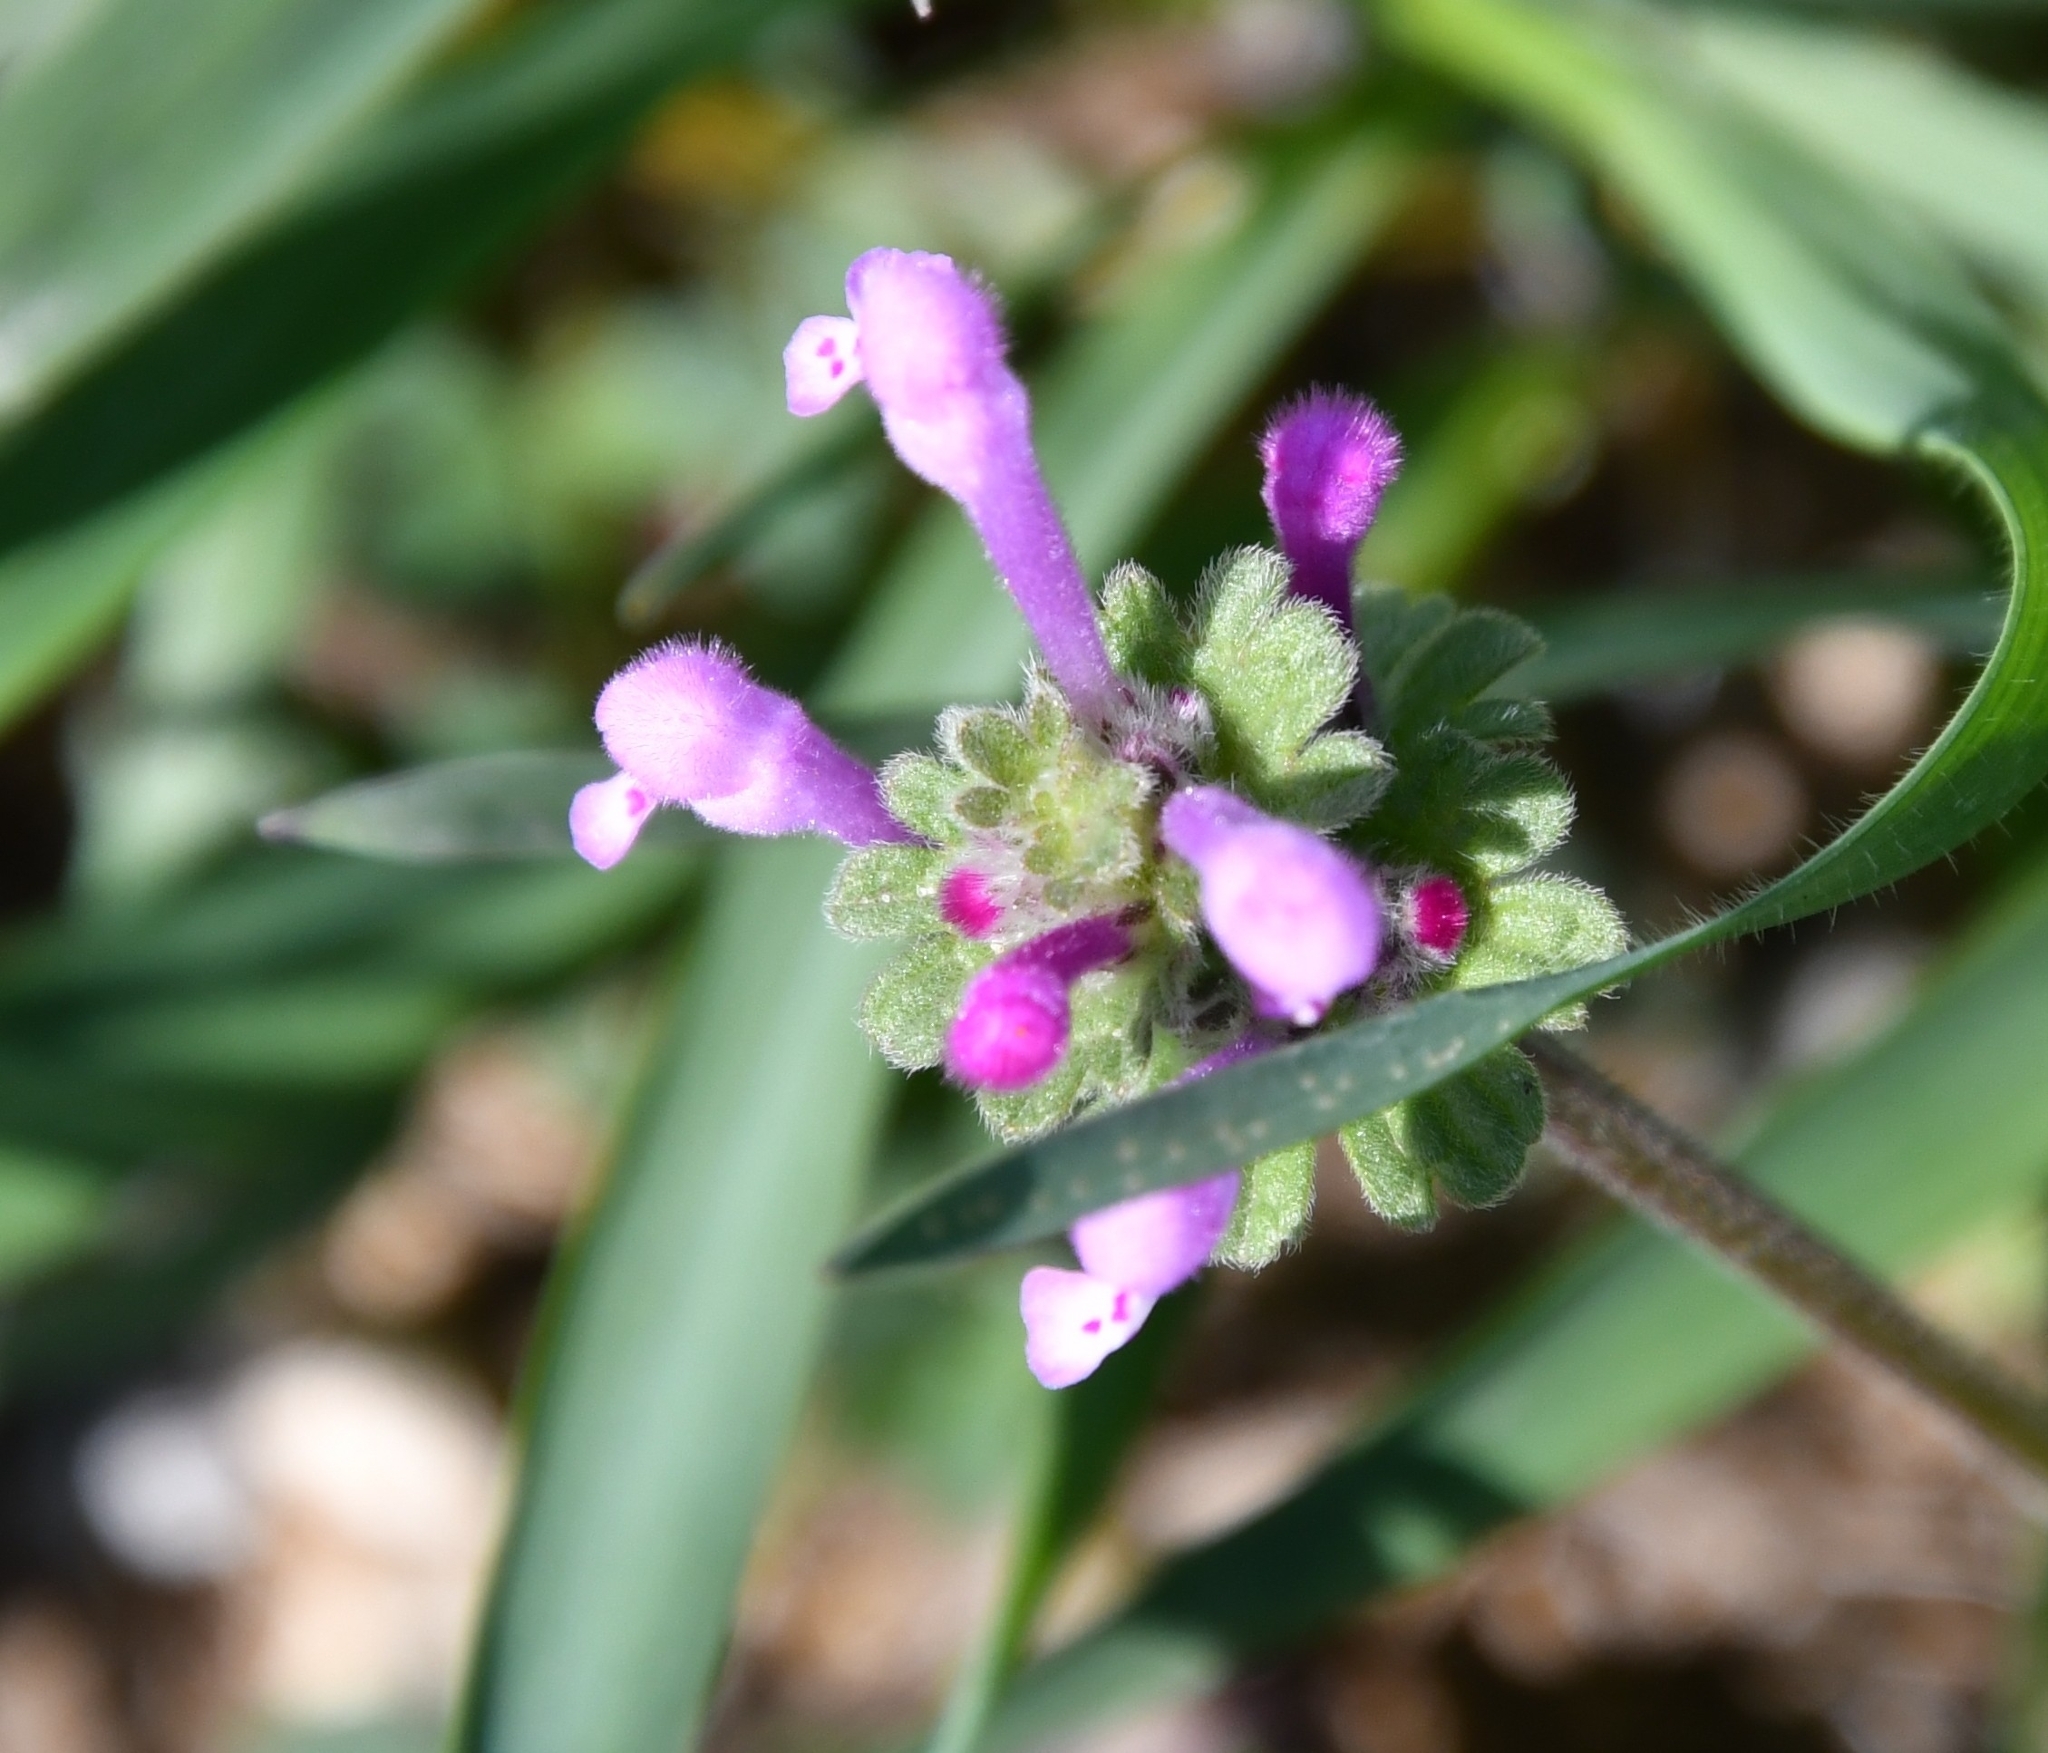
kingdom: Plantae
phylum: Tracheophyta
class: Magnoliopsida
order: Lamiales
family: Lamiaceae
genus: Lamium
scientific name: Lamium amplexicaule
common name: Henbit dead-nettle
